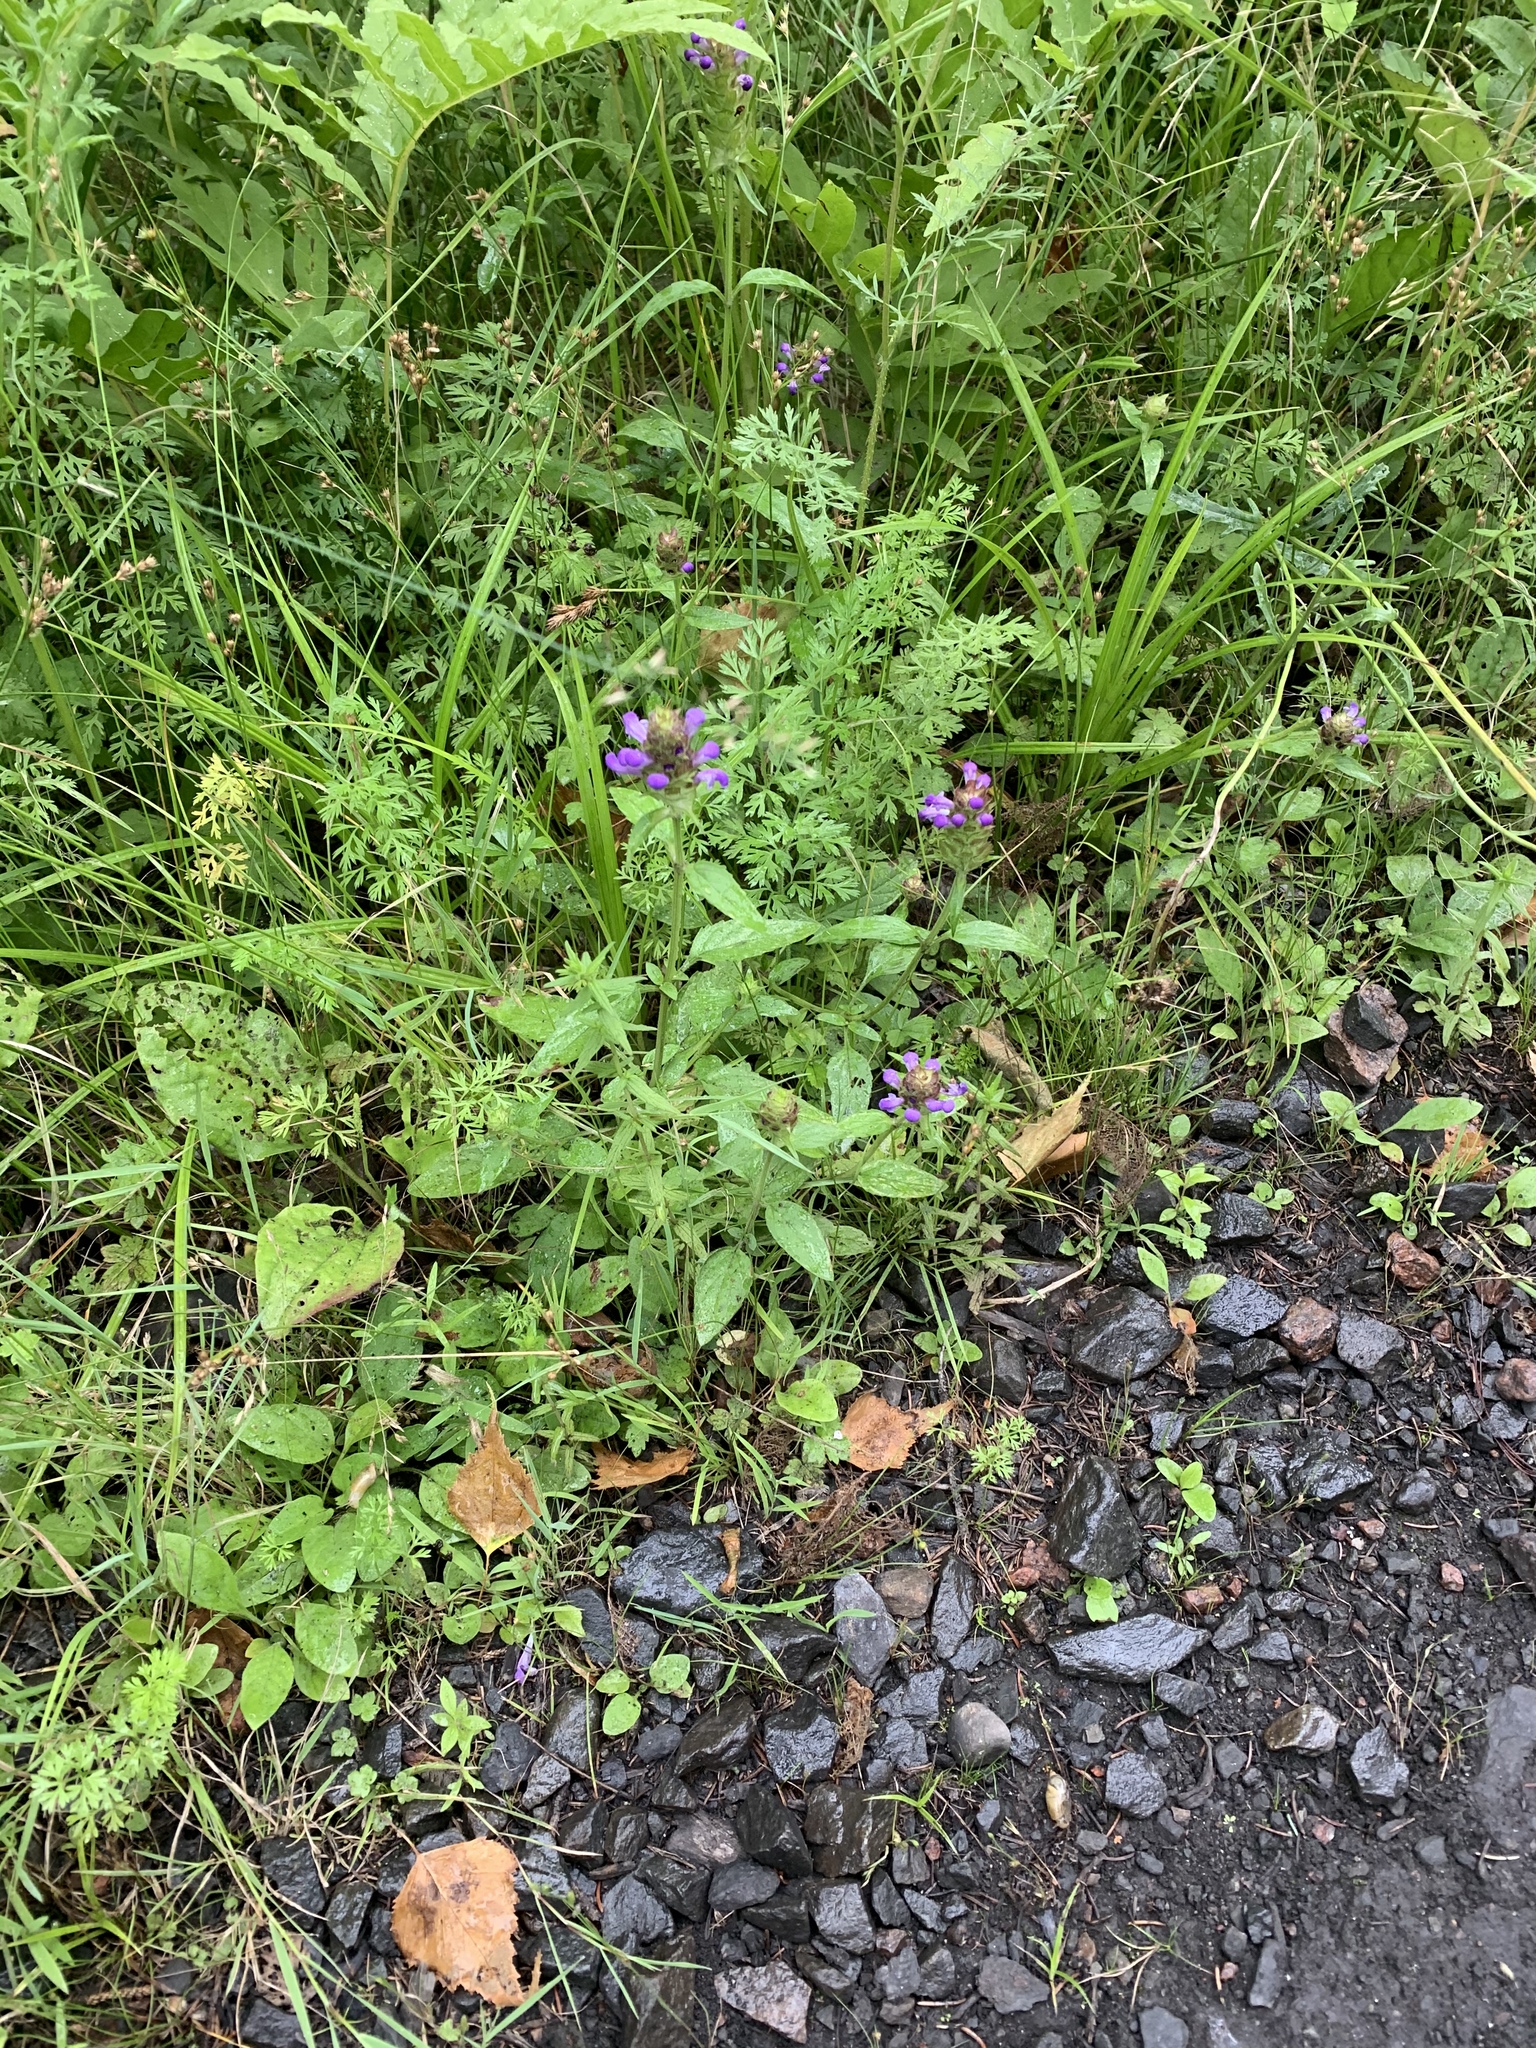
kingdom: Plantae
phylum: Tracheophyta
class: Magnoliopsida
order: Lamiales
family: Lamiaceae
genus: Prunella
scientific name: Prunella vulgaris
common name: Heal-all
